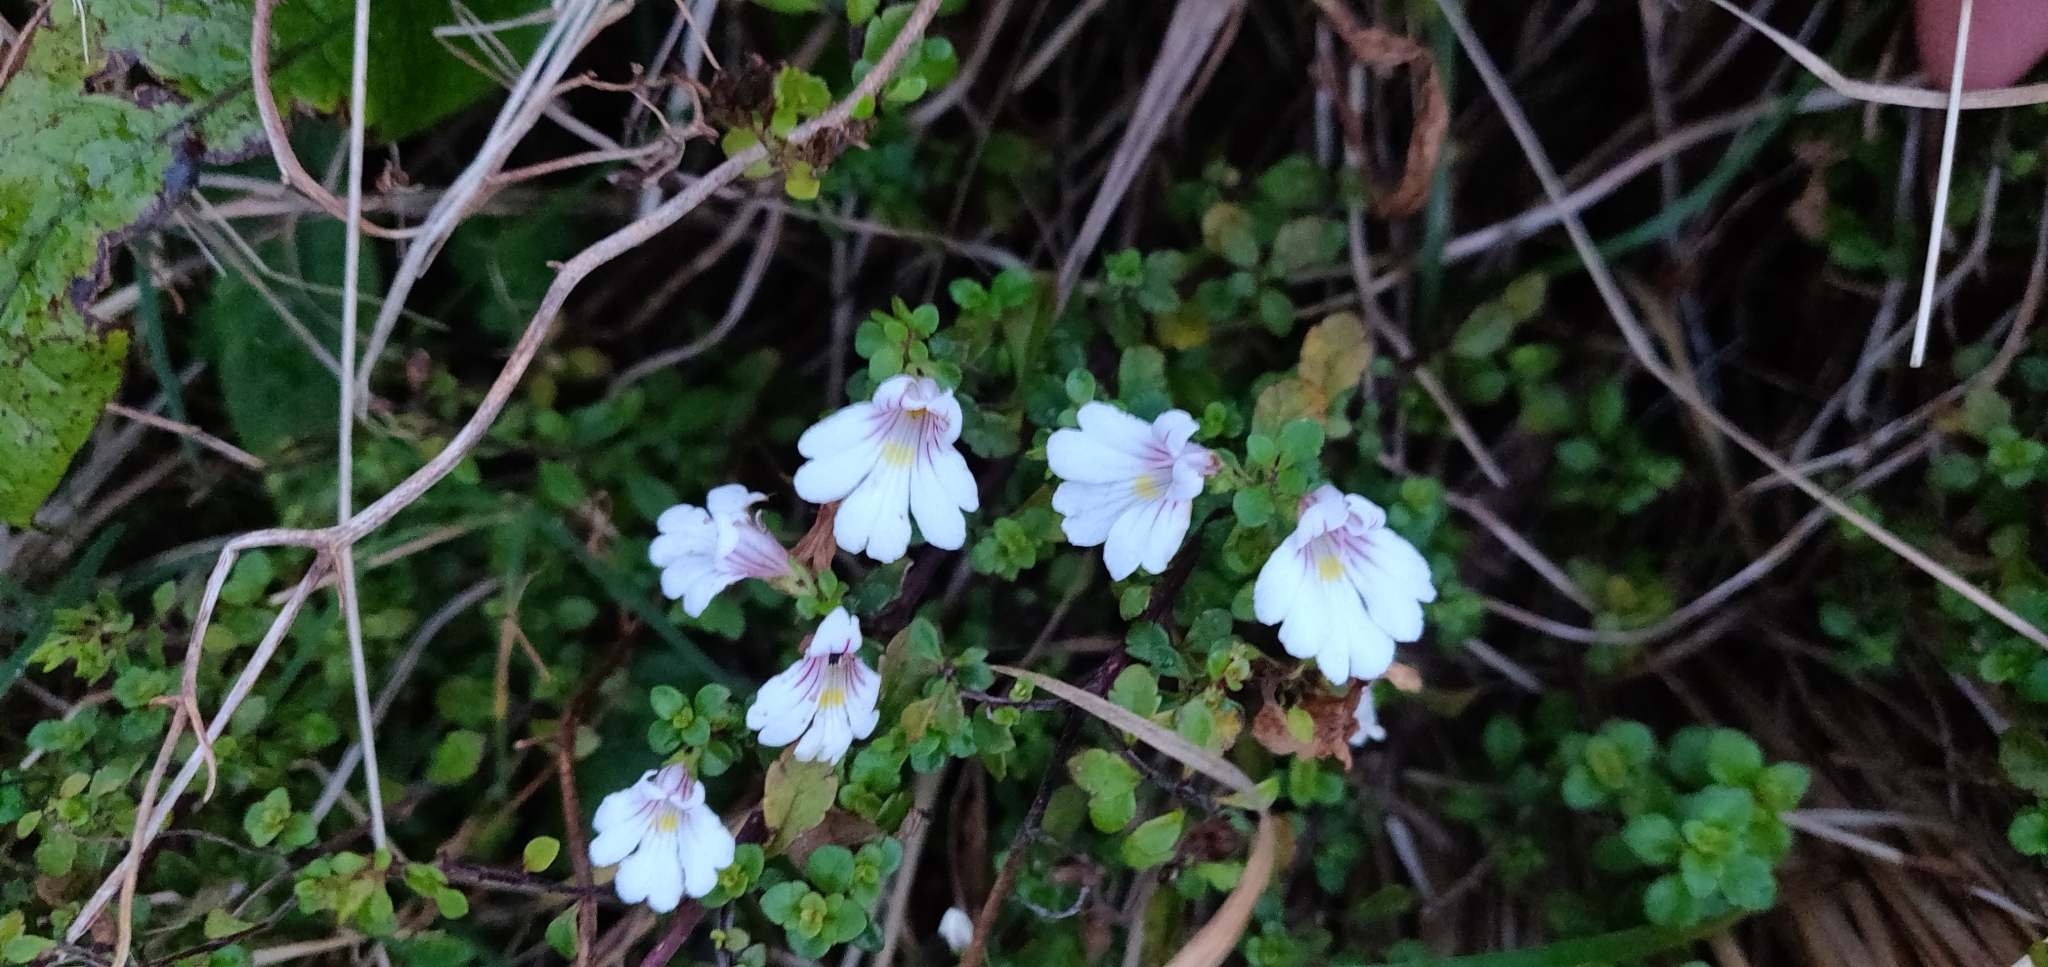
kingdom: Plantae
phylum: Tracheophyta
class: Magnoliopsida
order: Lamiales
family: Orobanchaceae
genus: Euphrasia
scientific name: Euphrasia cuneata
